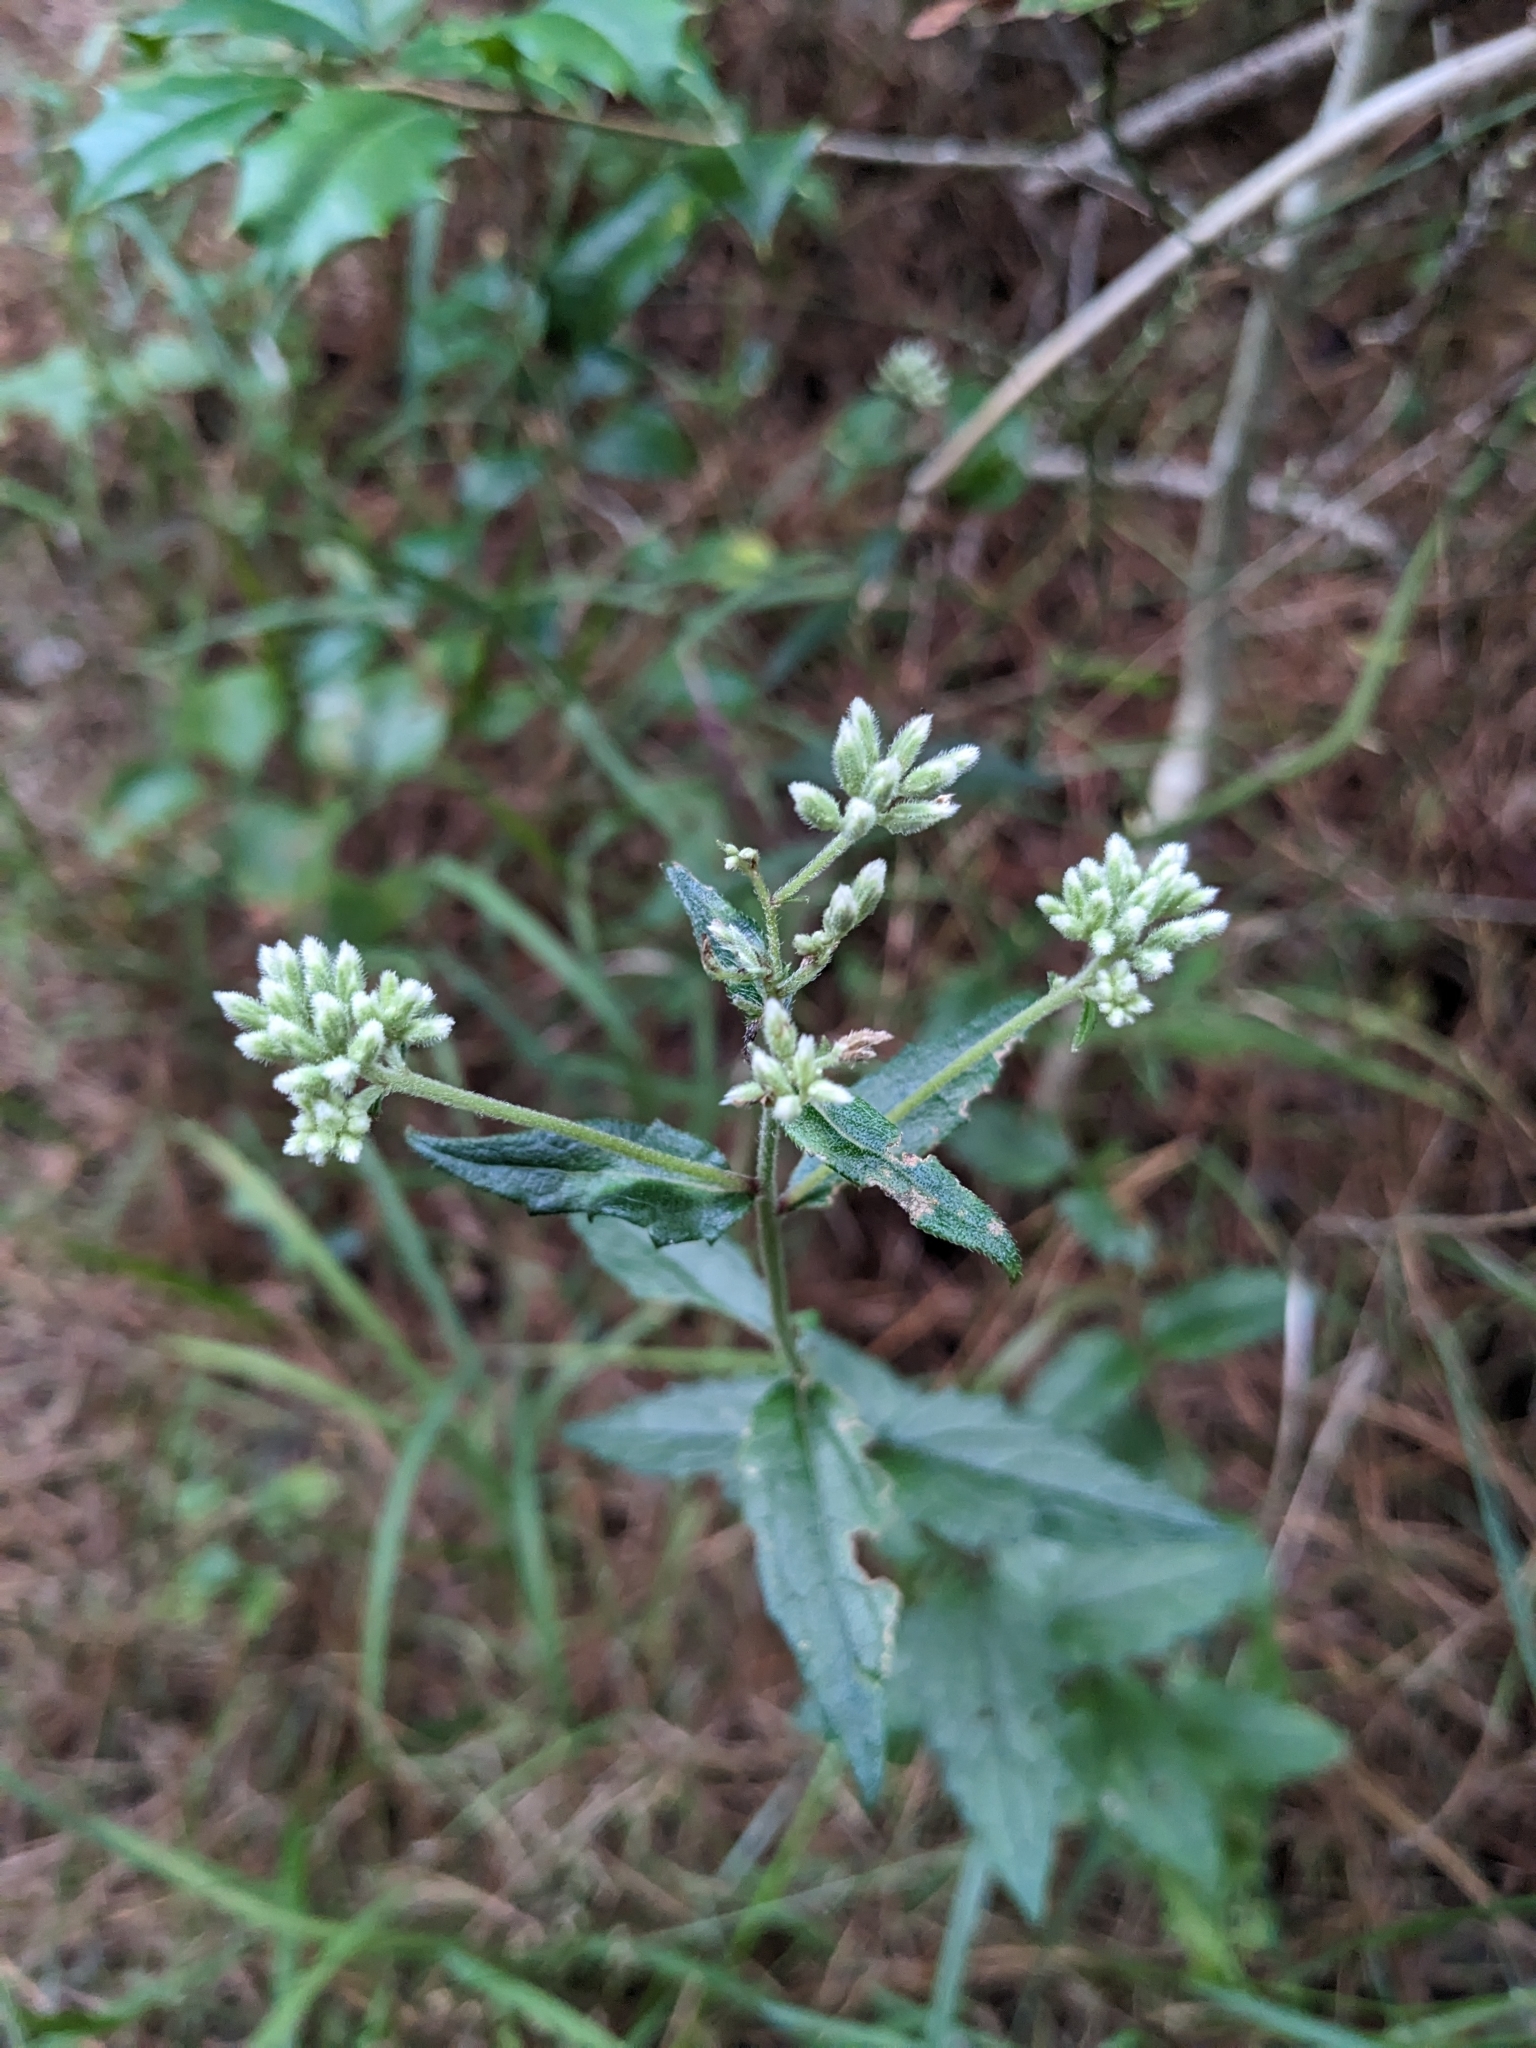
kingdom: Plantae
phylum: Tracheophyta
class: Magnoliopsida
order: Asterales
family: Asteraceae
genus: Eupatorium
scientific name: Eupatorium pilosum
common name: Rough boneset
